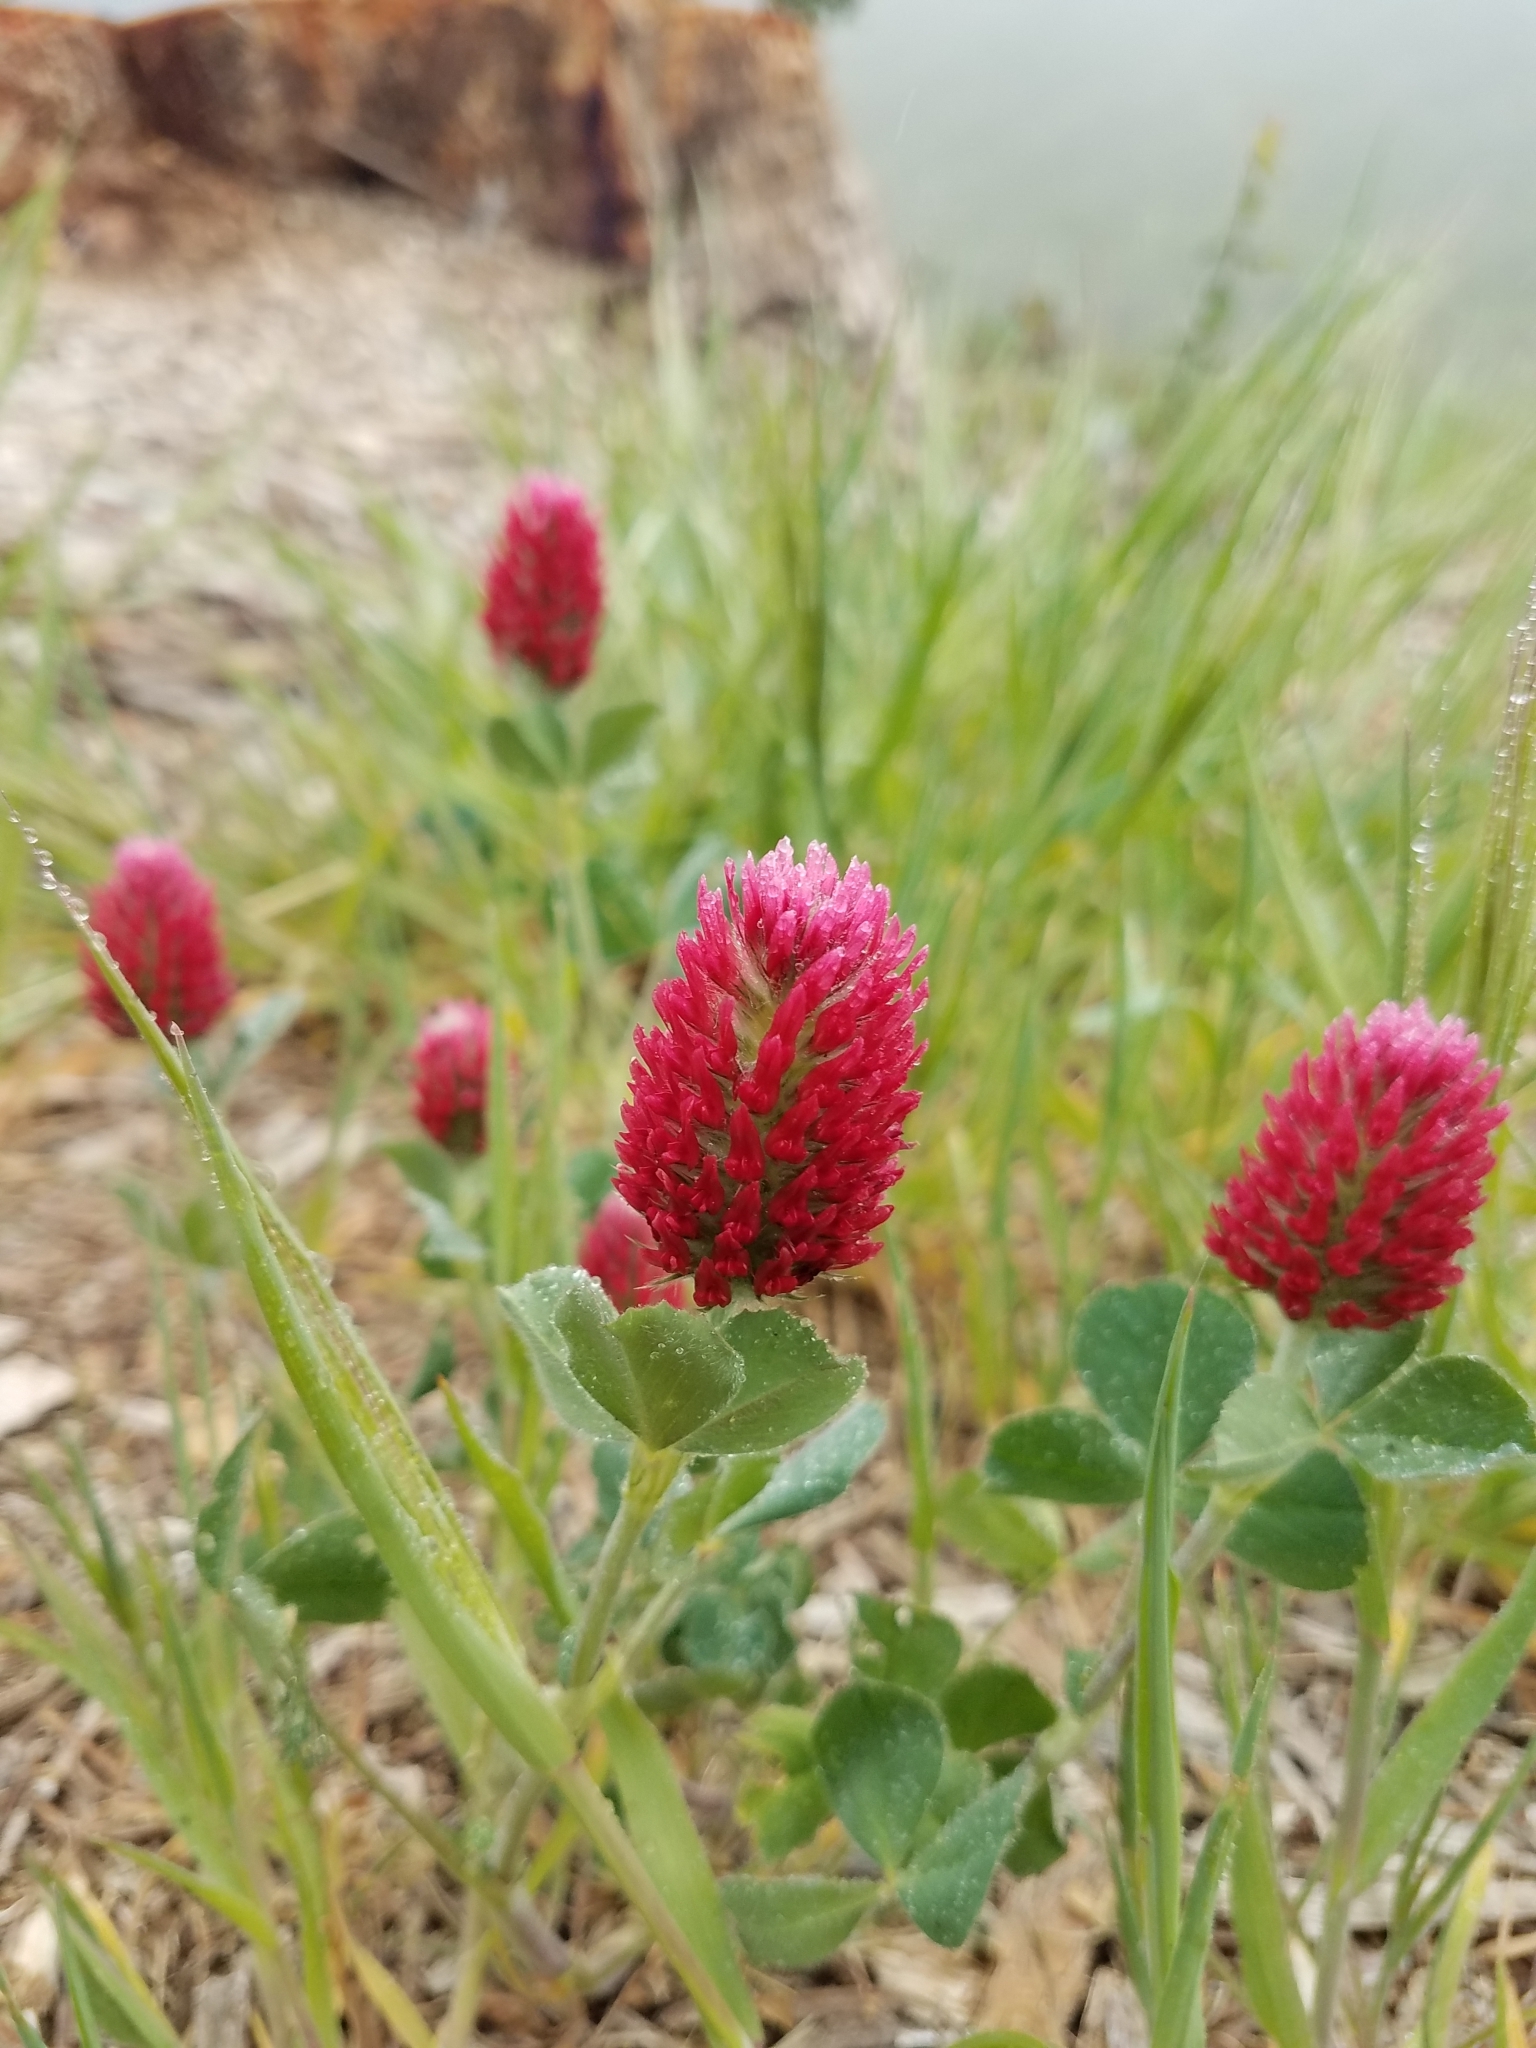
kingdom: Plantae
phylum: Tracheophyta
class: Magnoliopsida
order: Fabales
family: Fabaceae
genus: Trifolium
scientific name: Trifolium incarnatum
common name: Crimson clover
